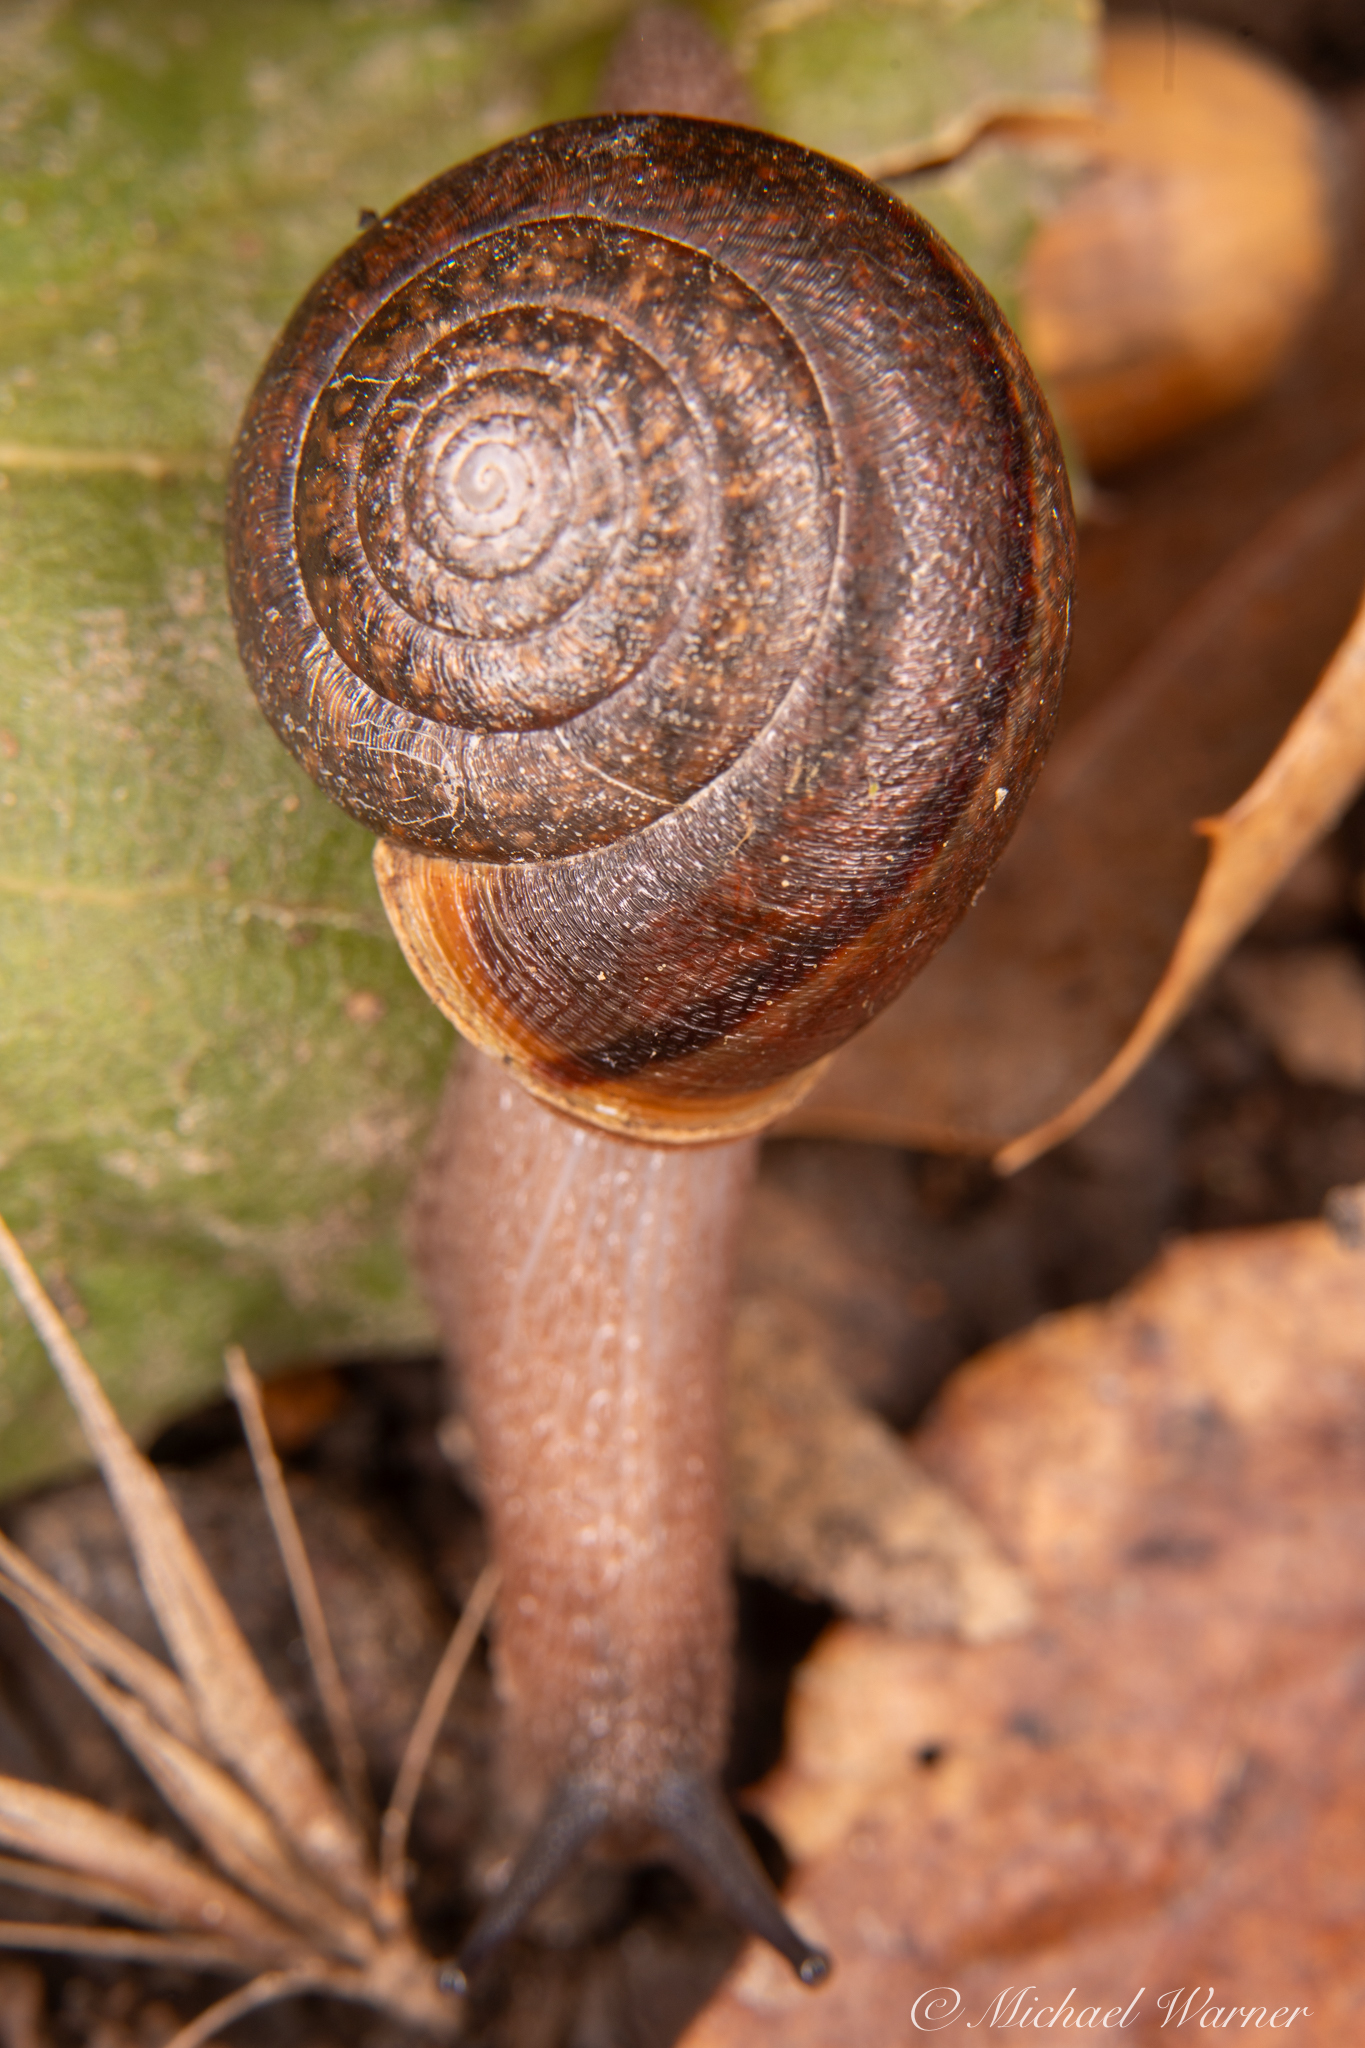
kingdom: Animalia
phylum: Mollusca
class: Gastropoda
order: Stylommatophora
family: Xanthonychidae
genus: Helminthoglypta
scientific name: Helminthoglypta diabloensis
